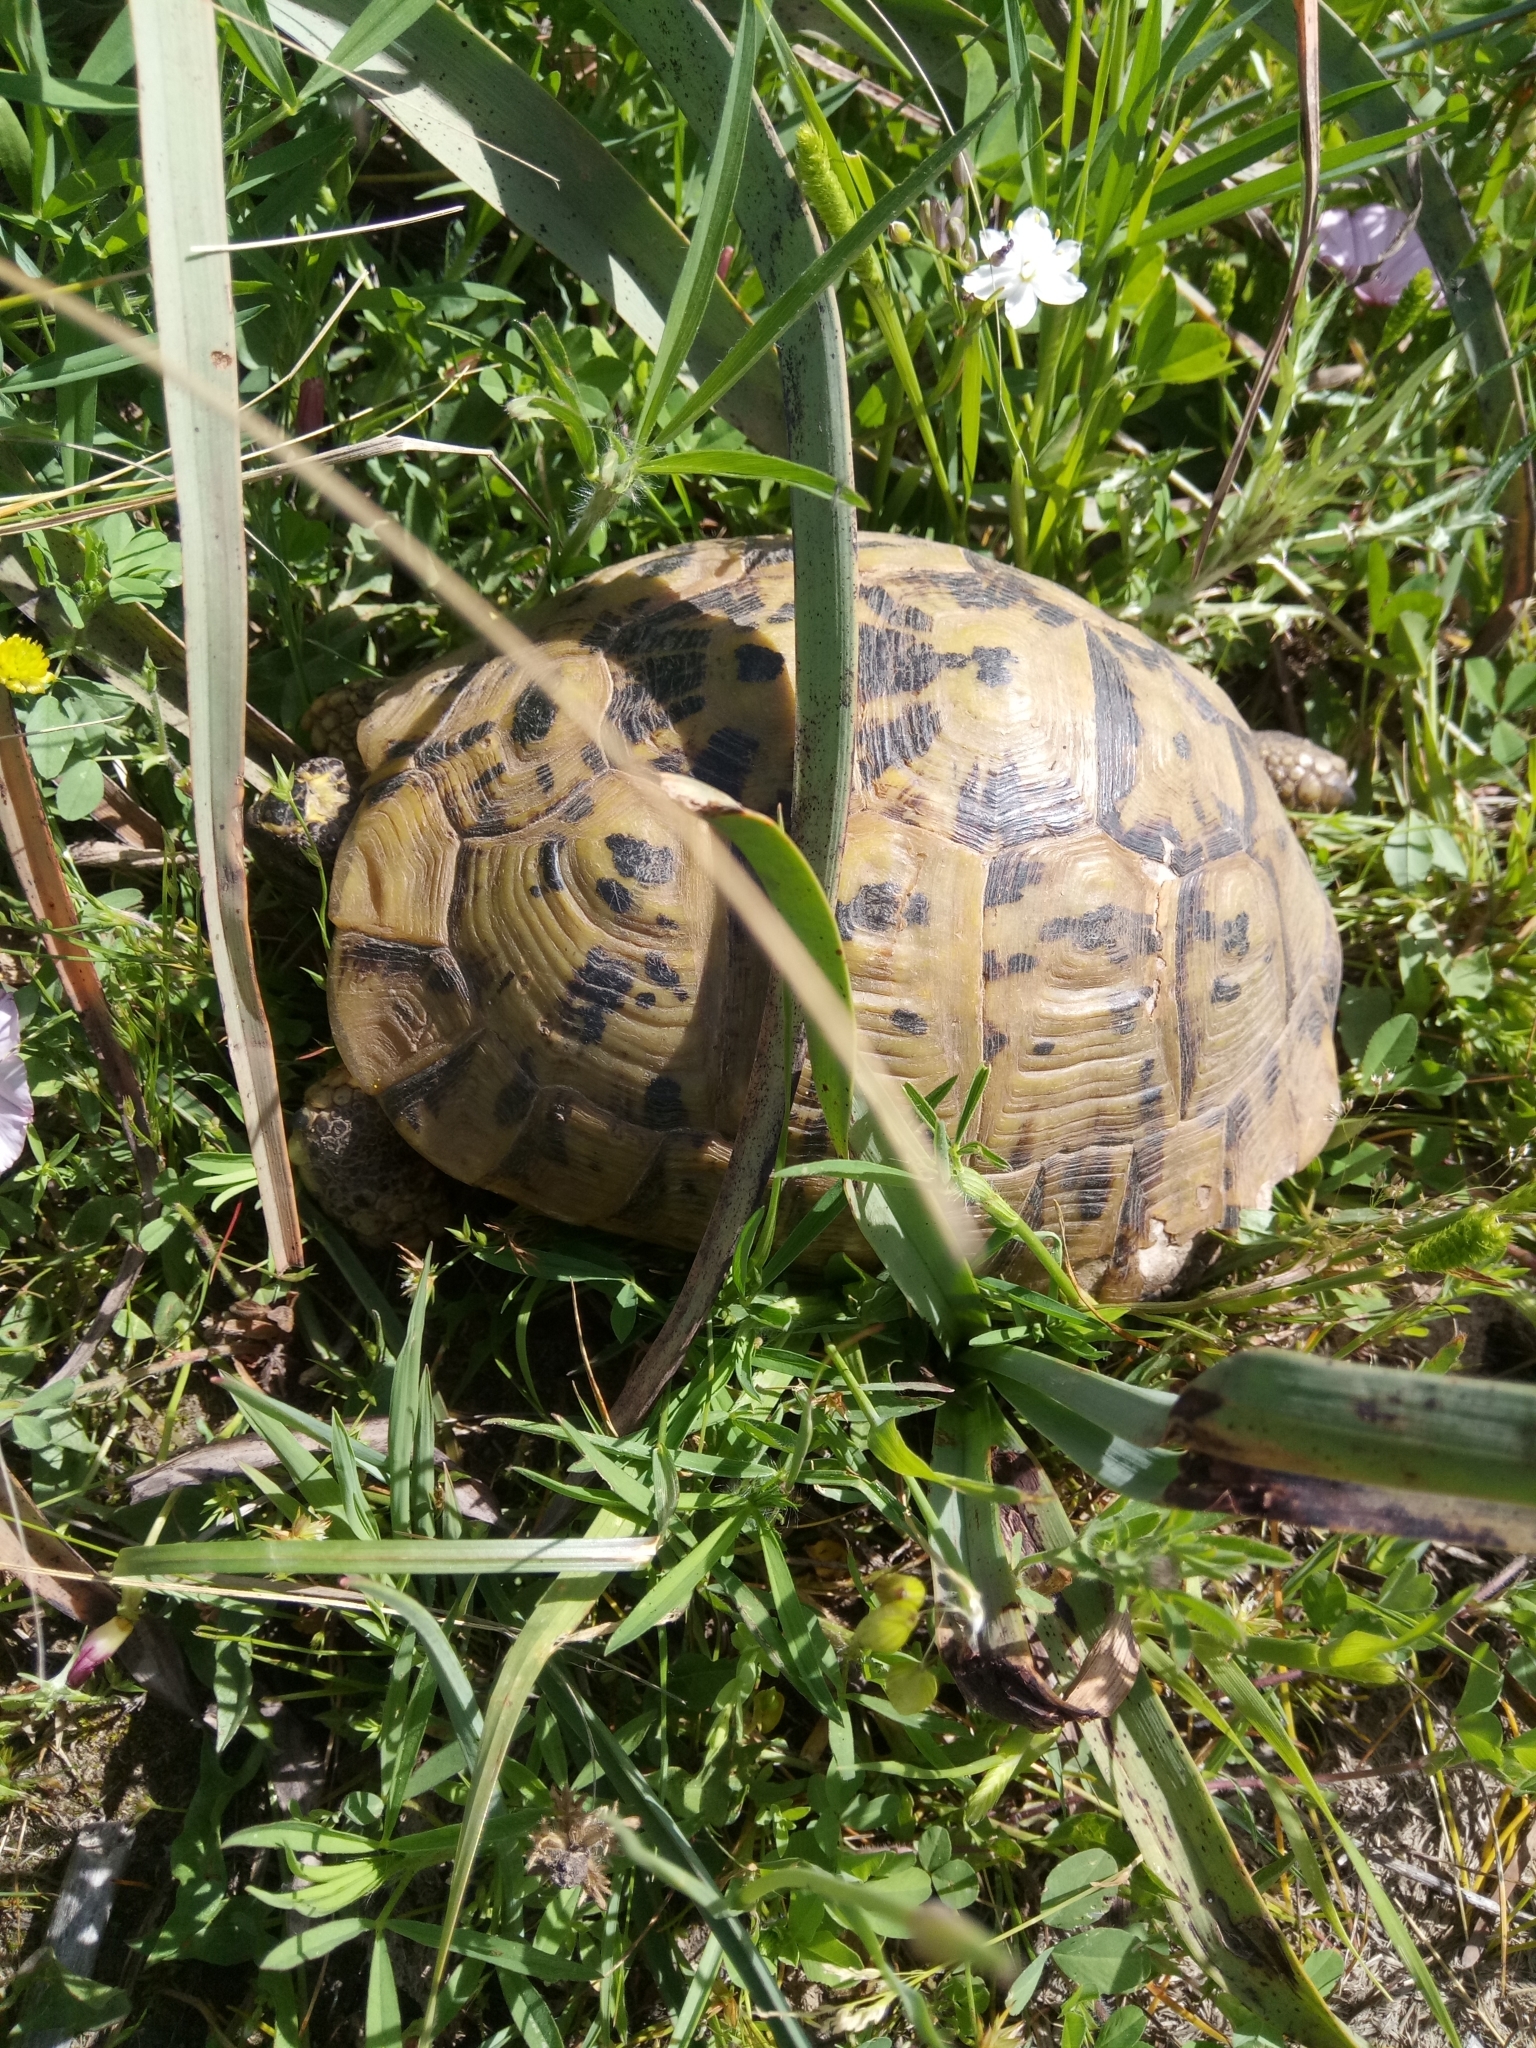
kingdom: Animalia
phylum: Chordata
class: Testudines
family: Testudinidae
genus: Testudo
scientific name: Testudo graeca
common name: Common tortoise
